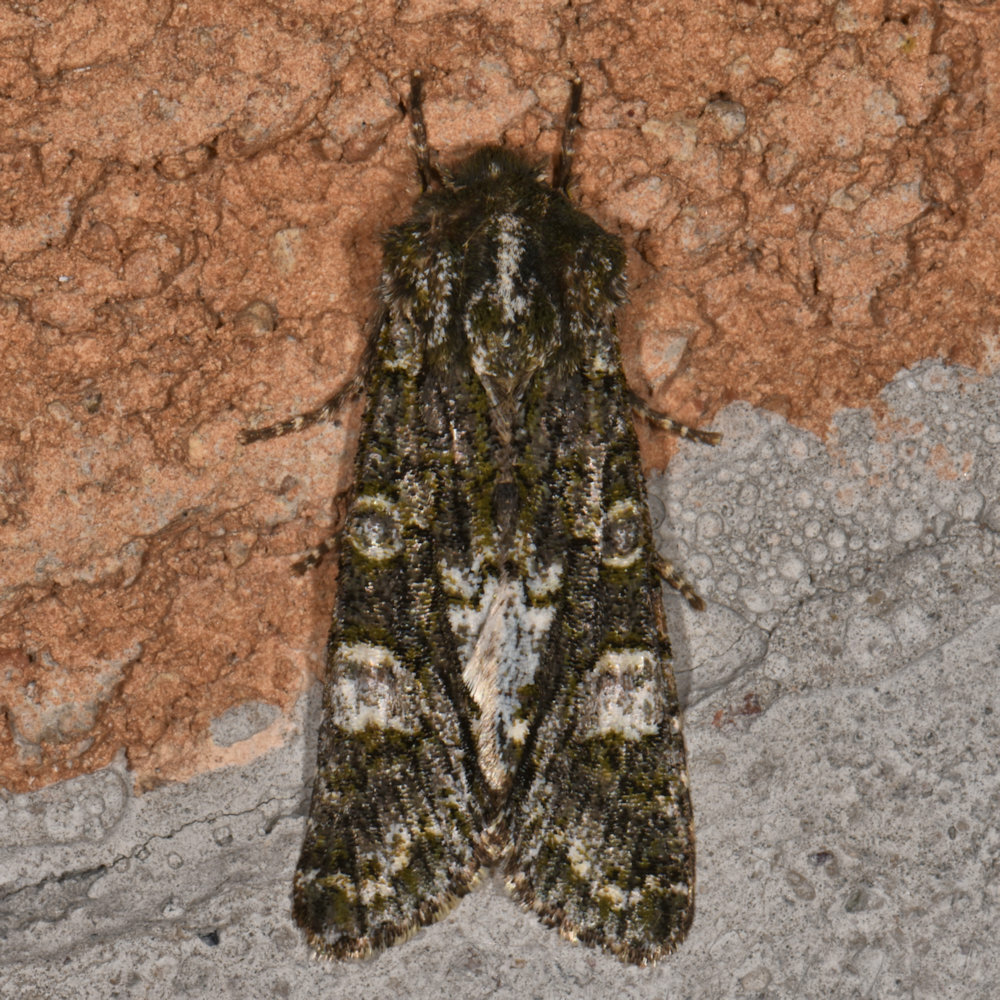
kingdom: Animalia
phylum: Arthropoda
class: Insecta
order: Lepidoptera
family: Noctuidae
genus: Psaphida
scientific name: Psaphida grotei
